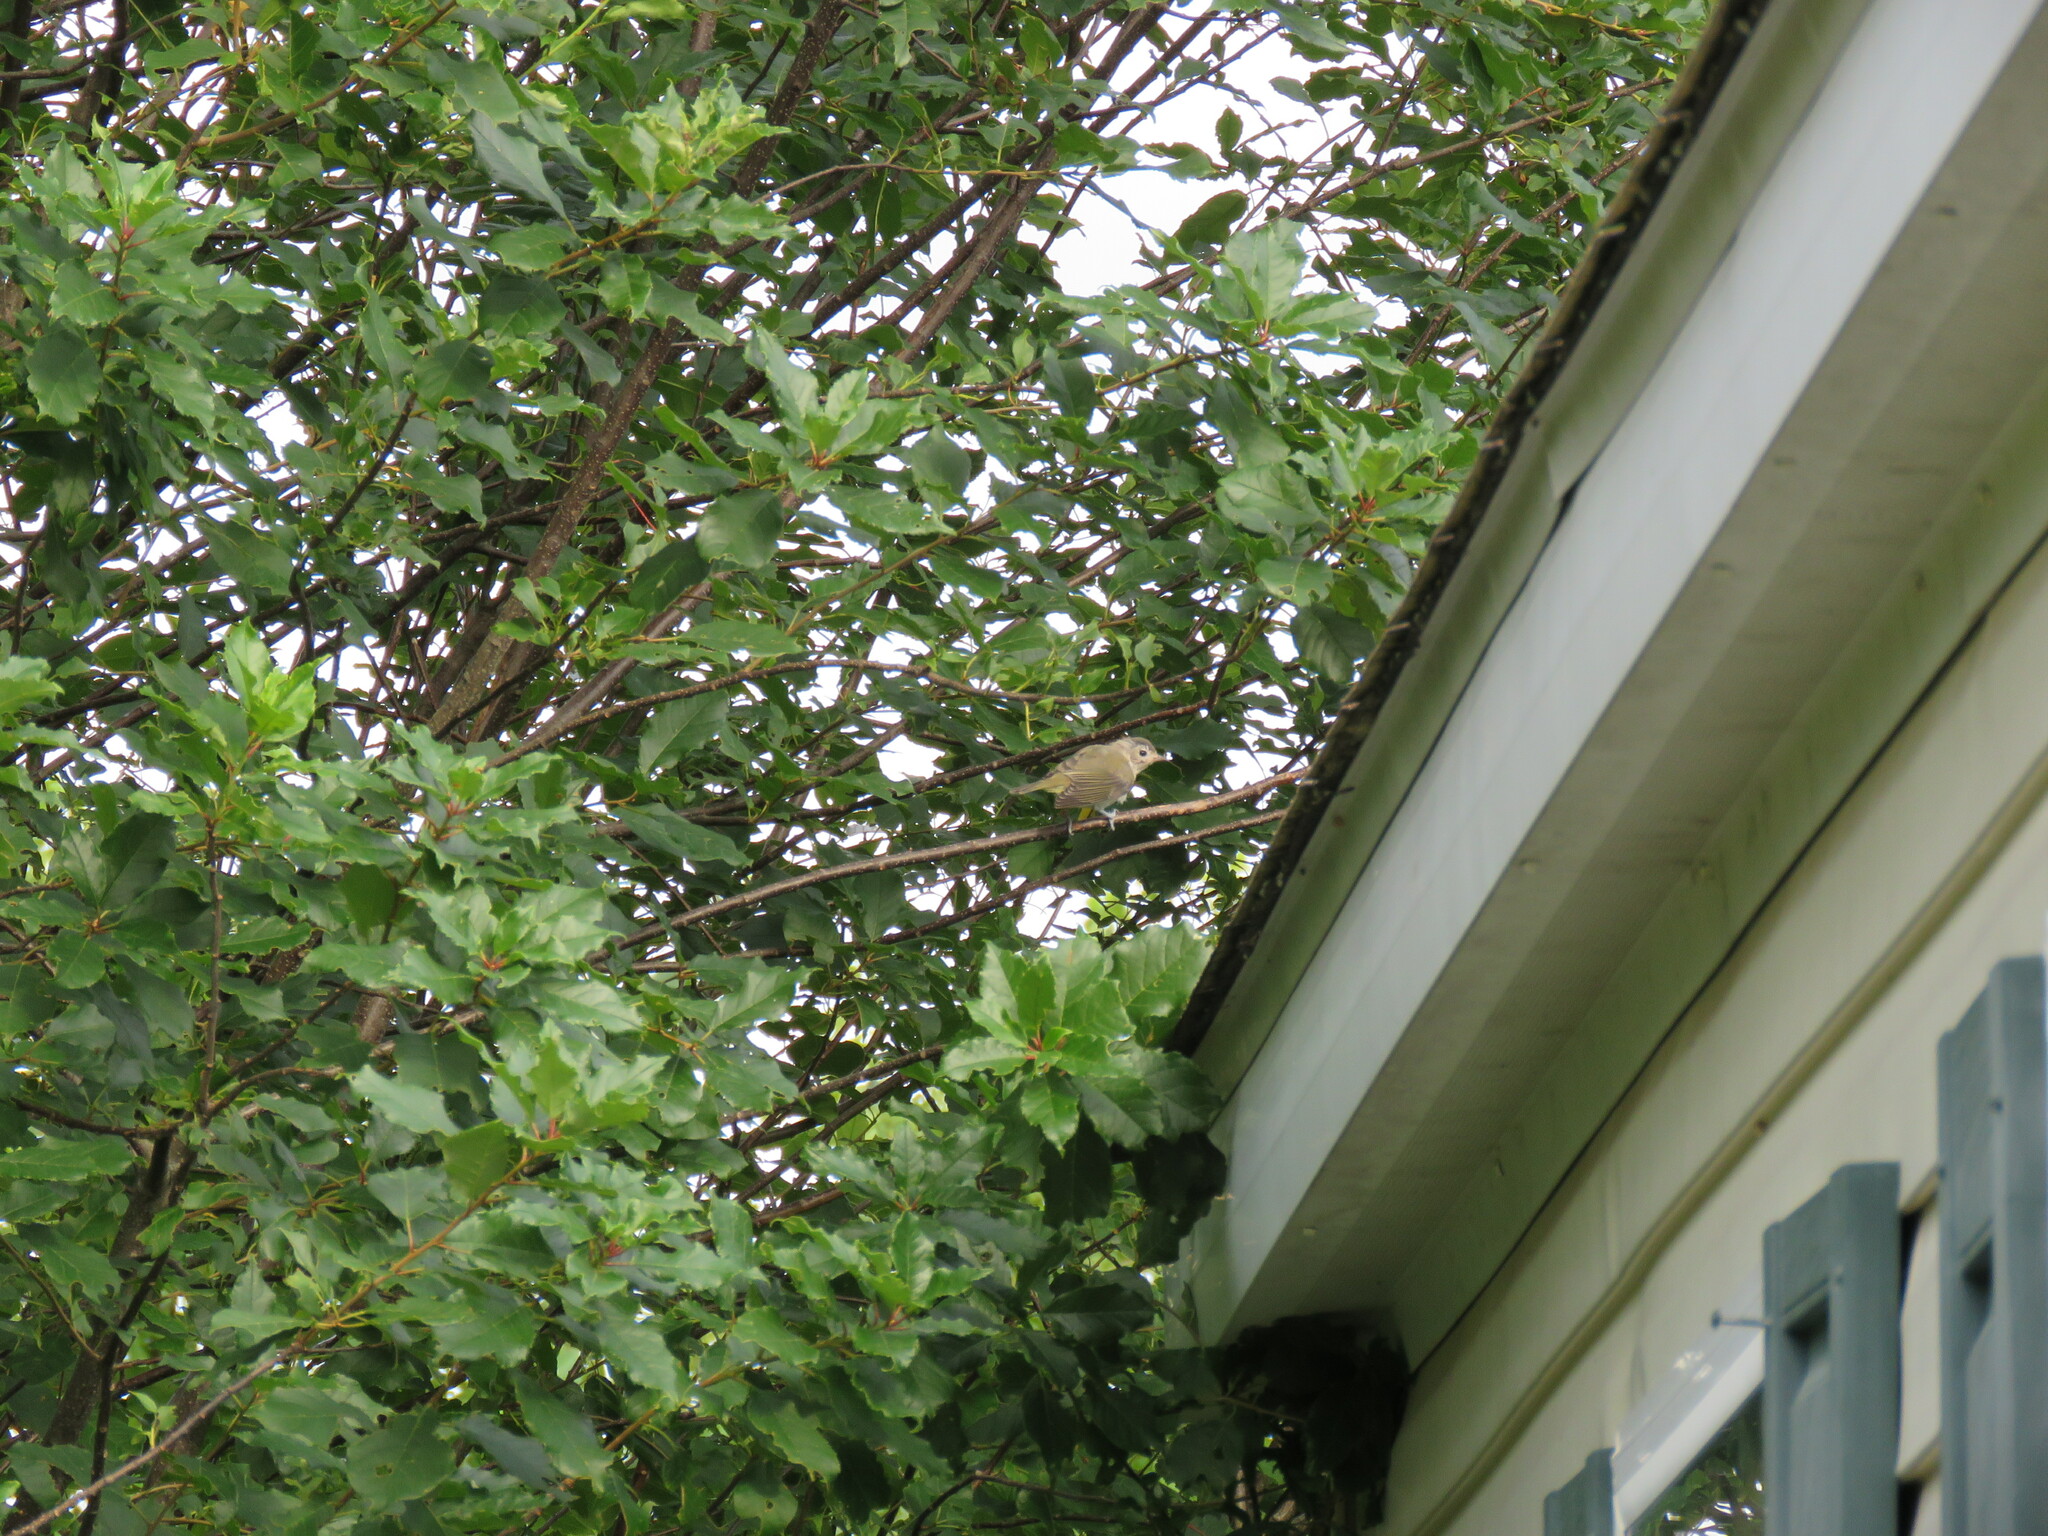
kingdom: Animalia
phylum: Chordata
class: Aves
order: Passeriformes
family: Vireonidae
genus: Vireo
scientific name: Vireo gilvus
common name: Warbling vireo
